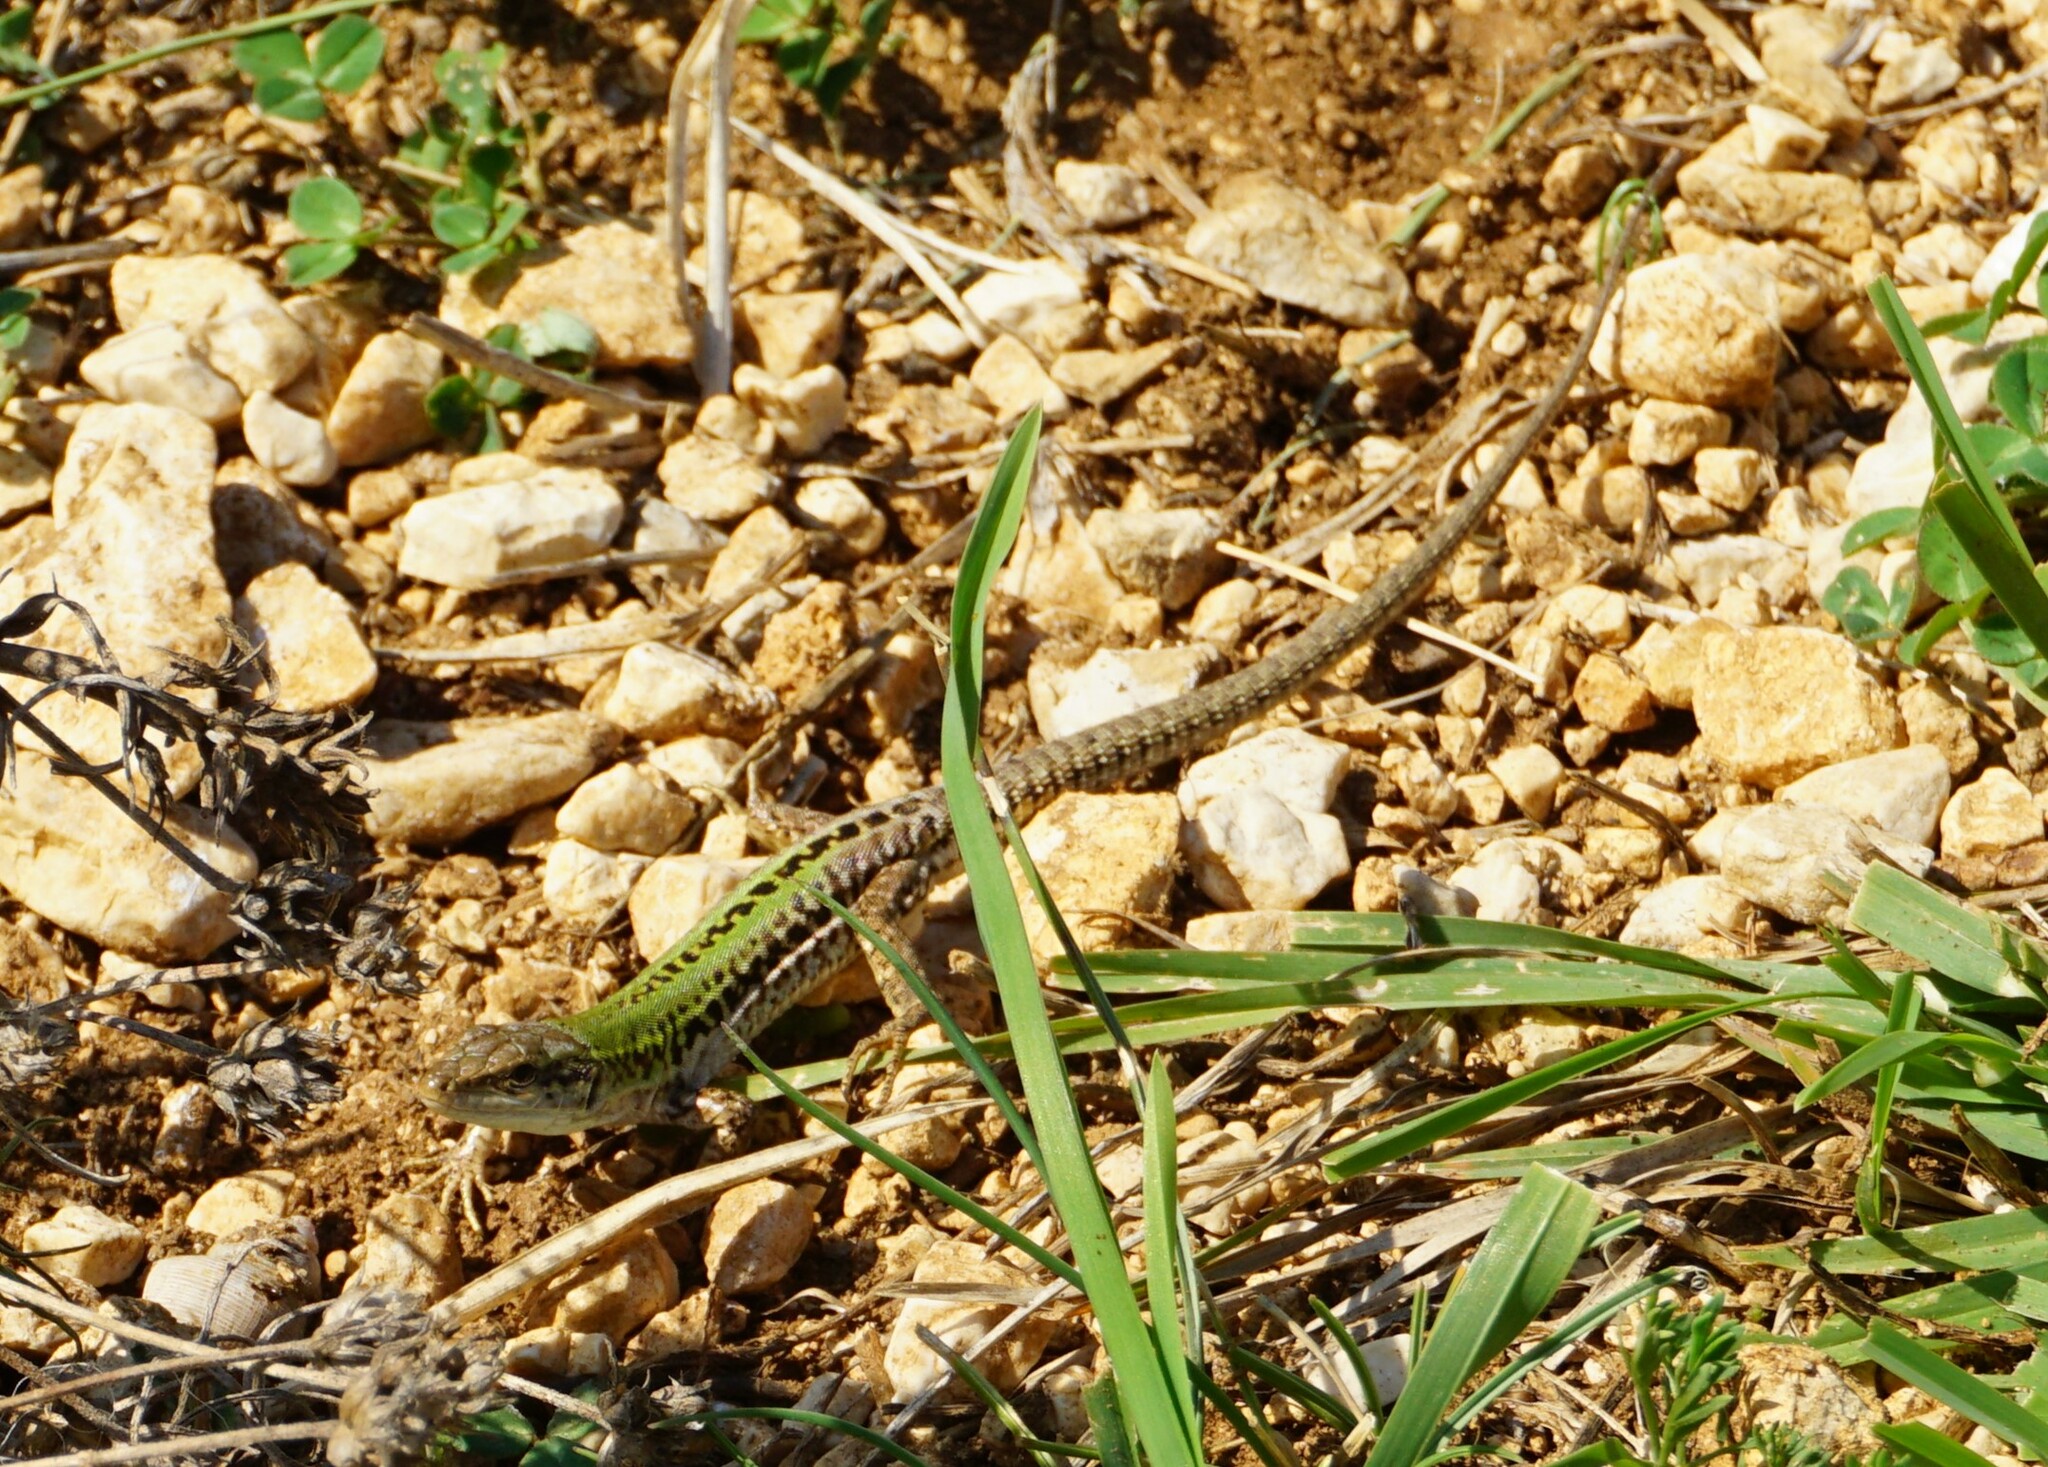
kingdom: Animalia
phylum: Chordata
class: Squamata
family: Lacertidae
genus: Podarcis
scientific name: Podarcis siculus
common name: Italian wall lizard
